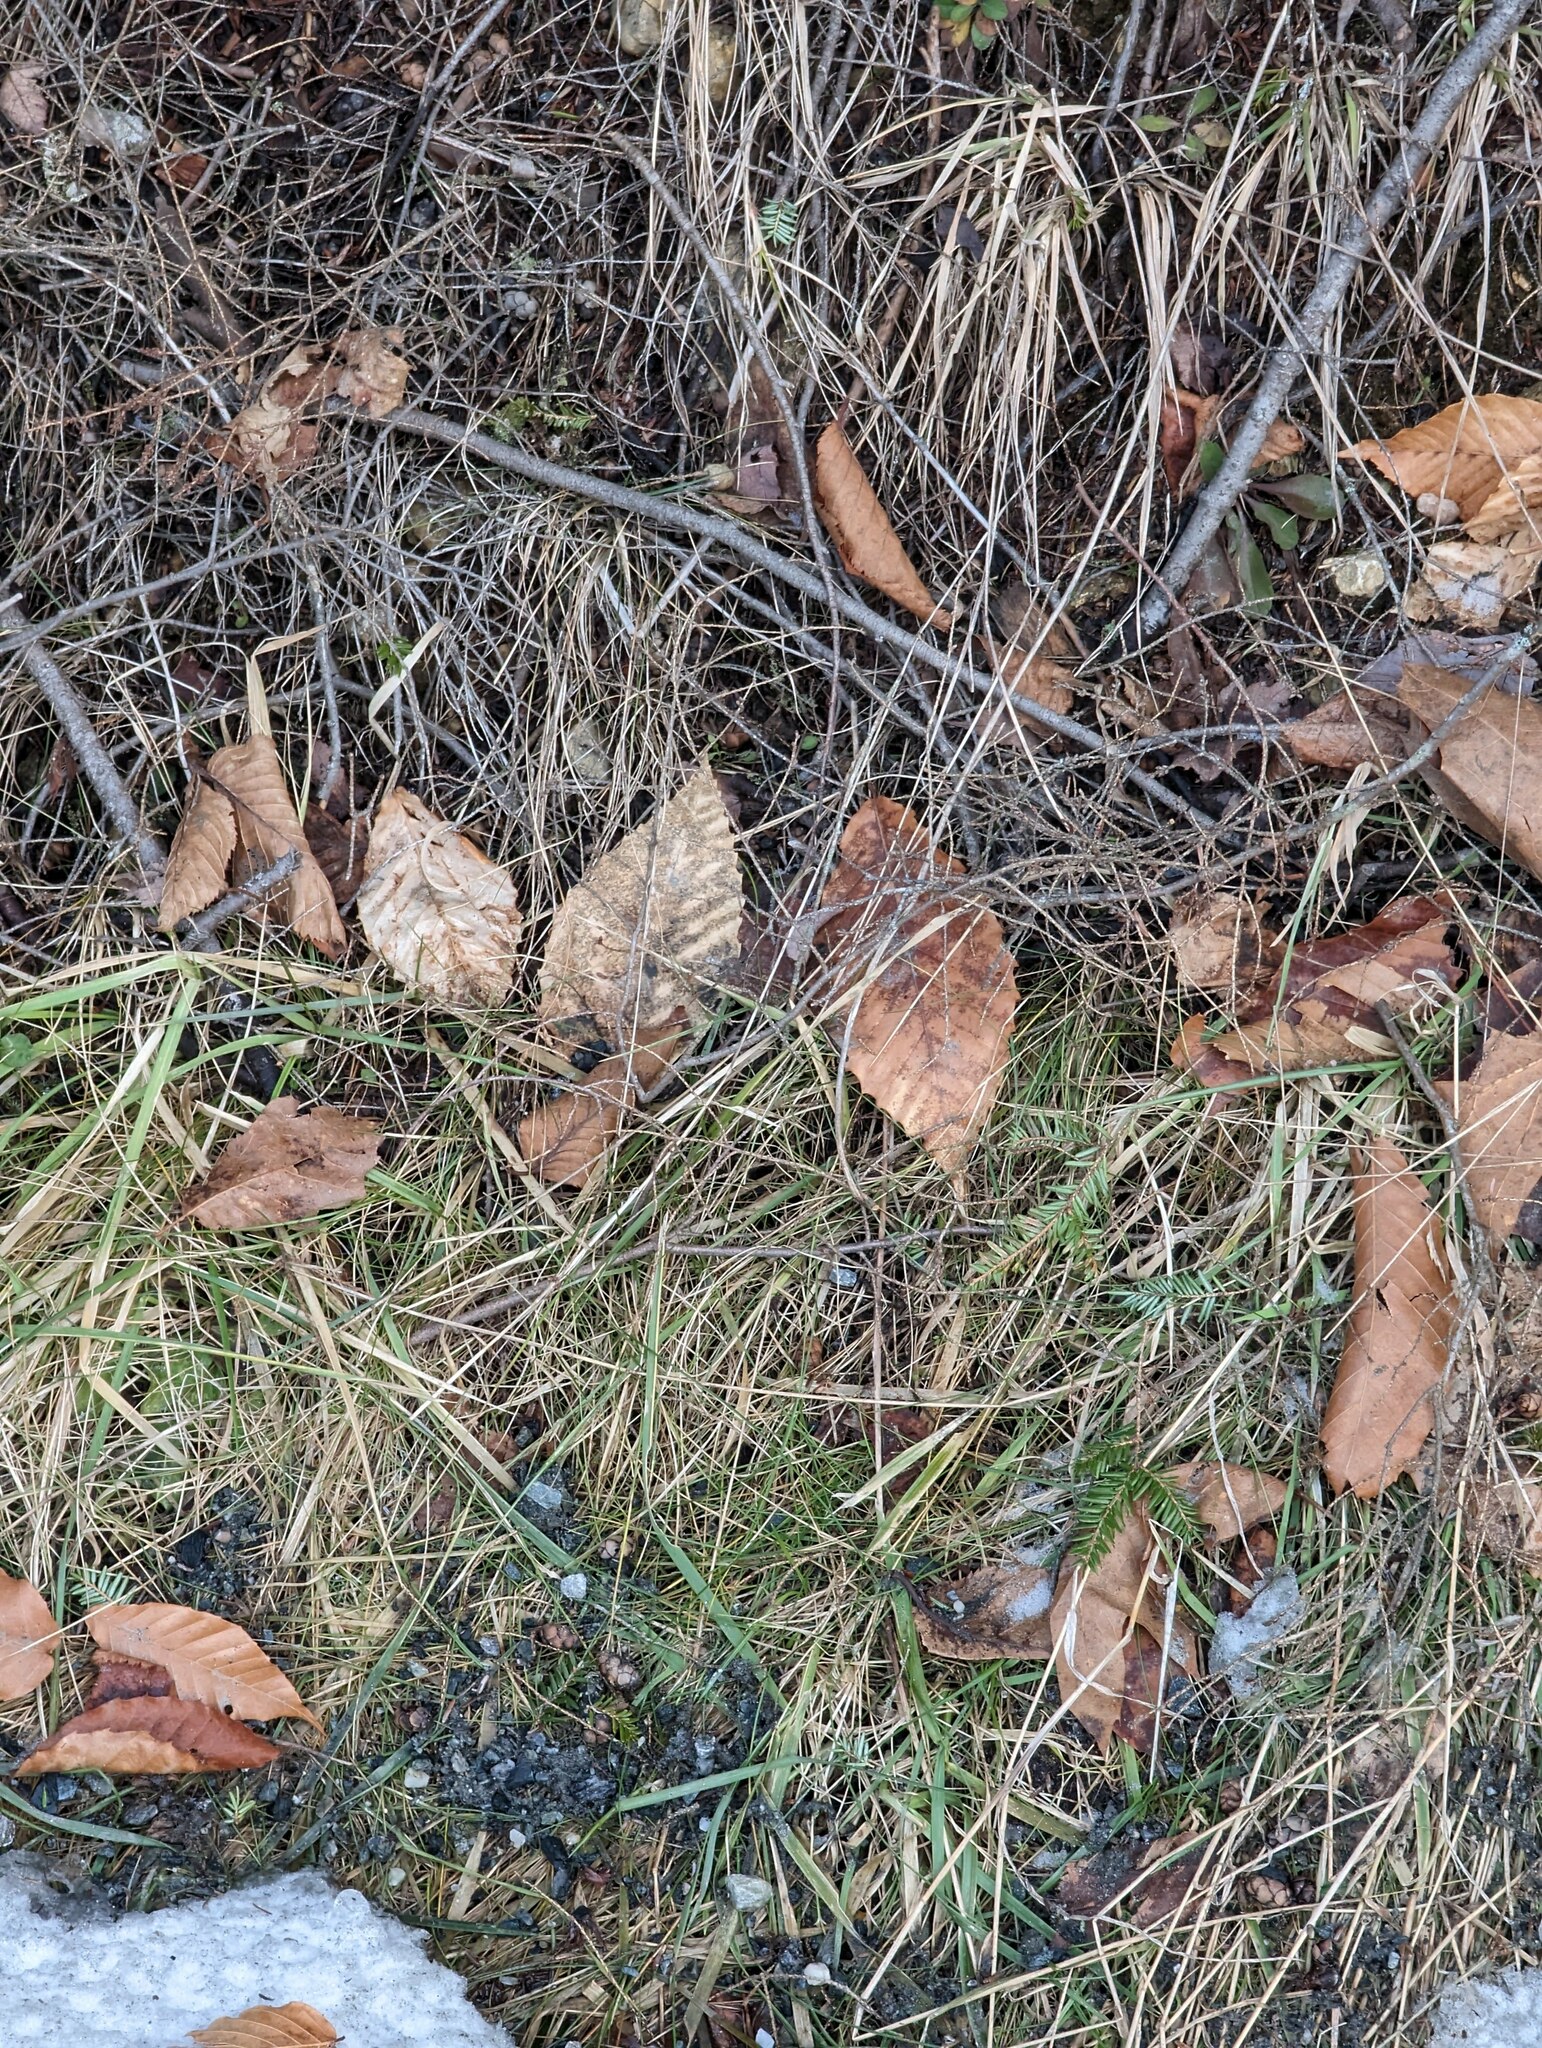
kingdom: Plantae
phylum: Tracheophyta
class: Magnoliopsida
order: Fagales
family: Fagaceae
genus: Fagus
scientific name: Fagus grandifolia
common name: American beech
